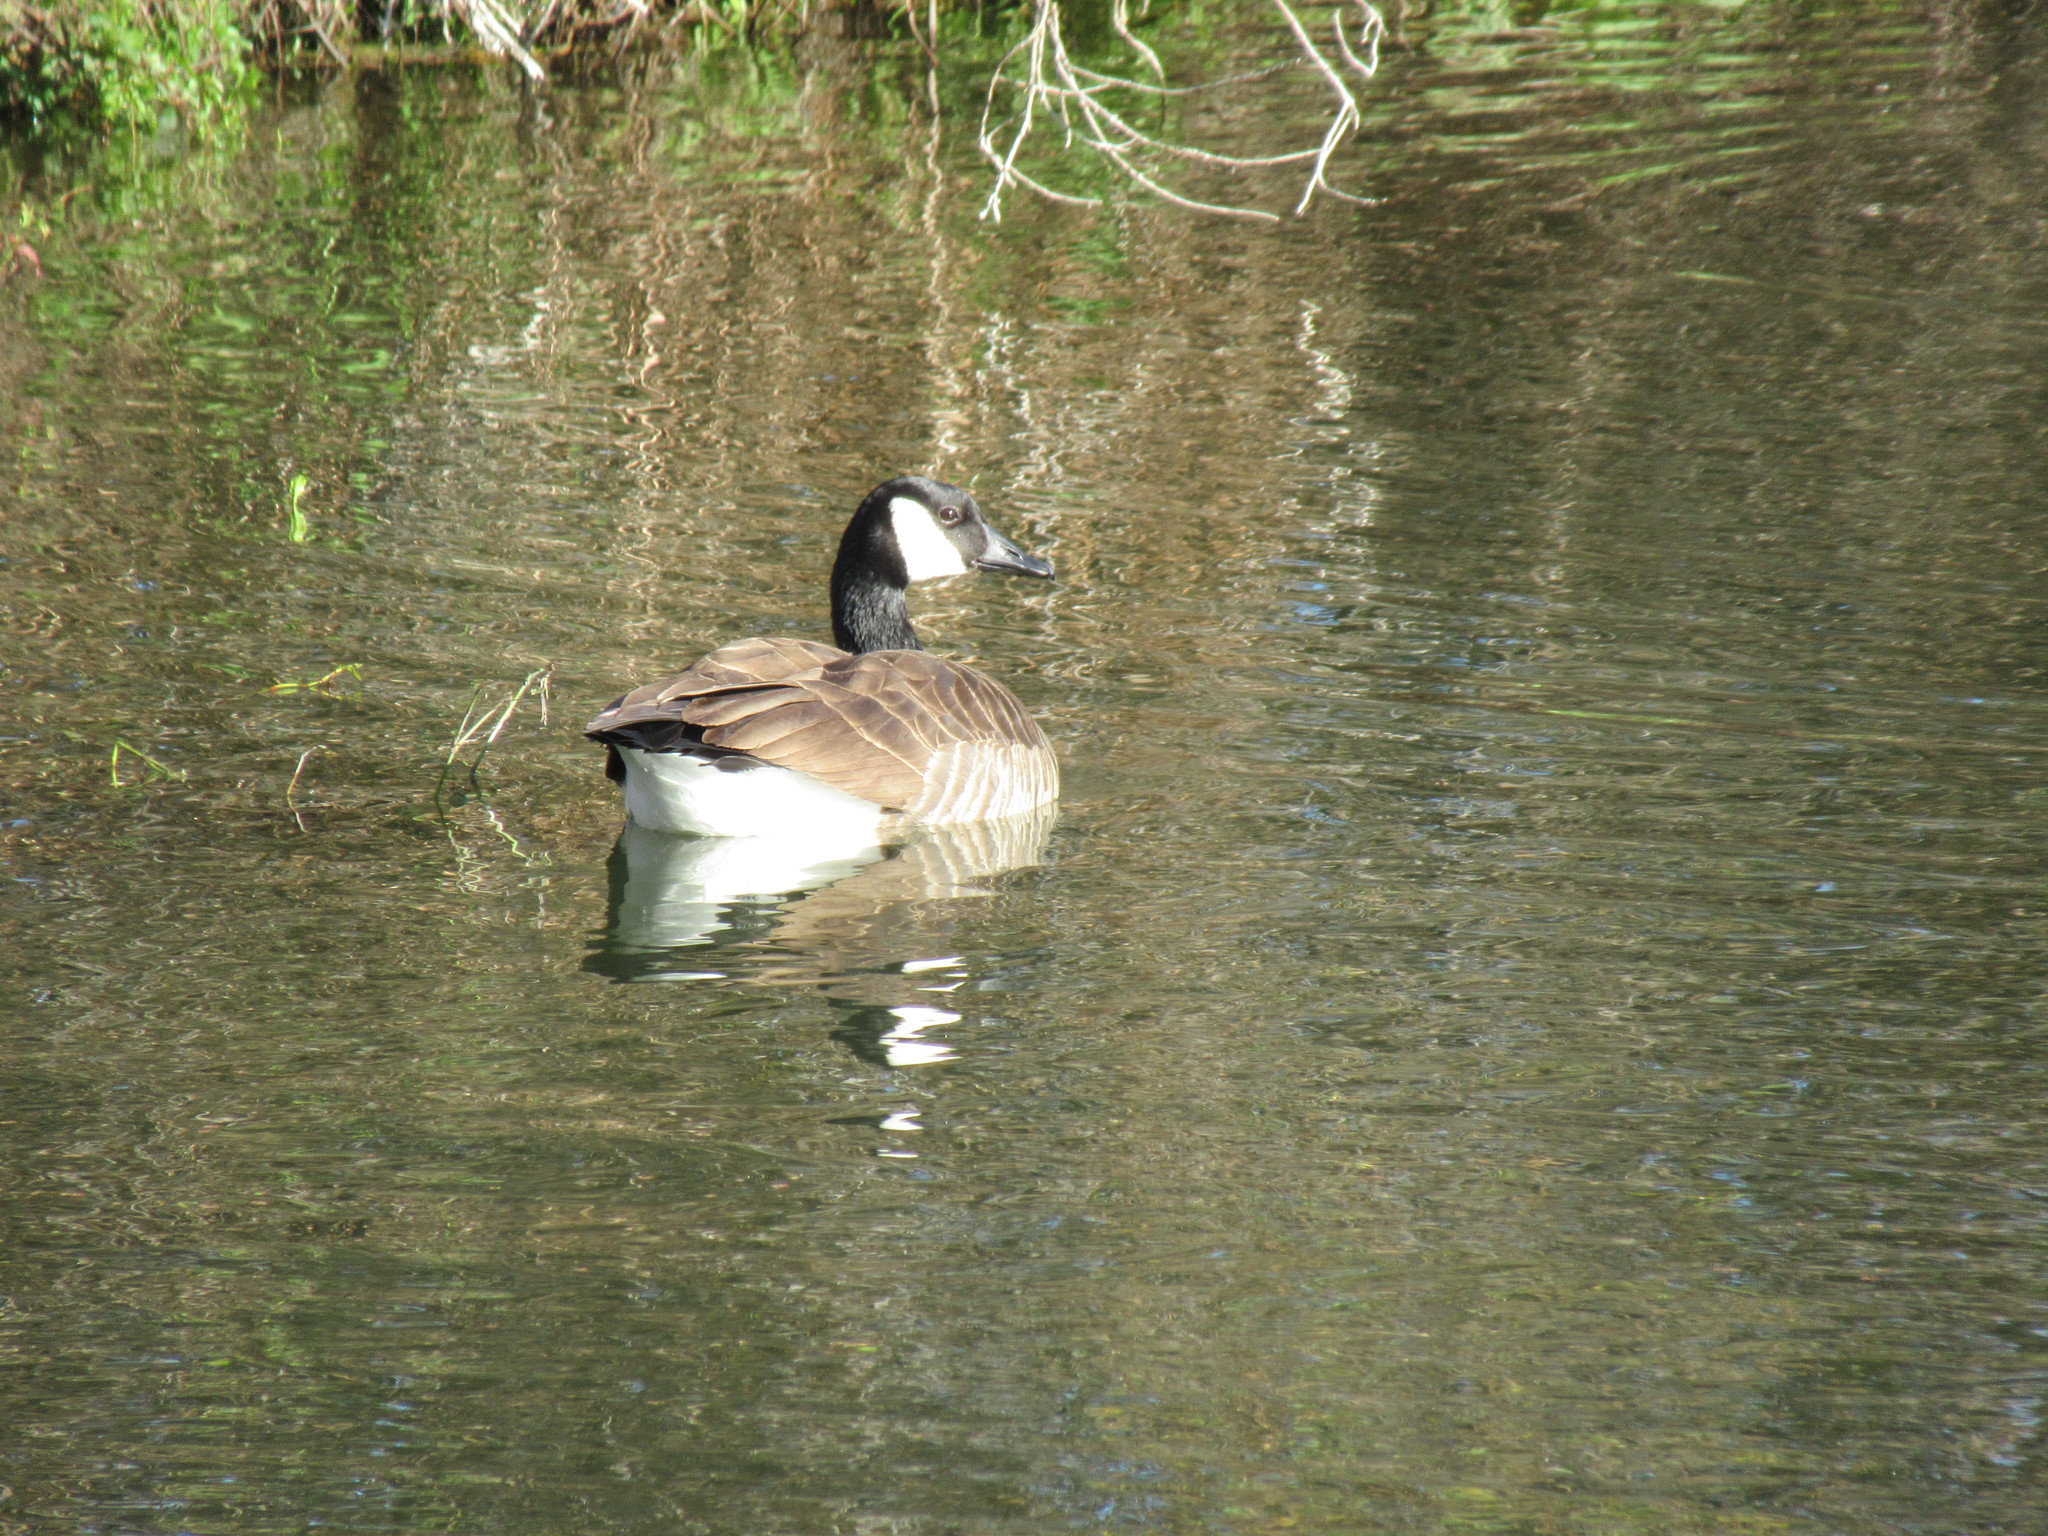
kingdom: Animalia
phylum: Chordata
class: Aves
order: Anseriformes
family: Anatidae
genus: Branta
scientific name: Branta canadensis
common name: Canada goose
